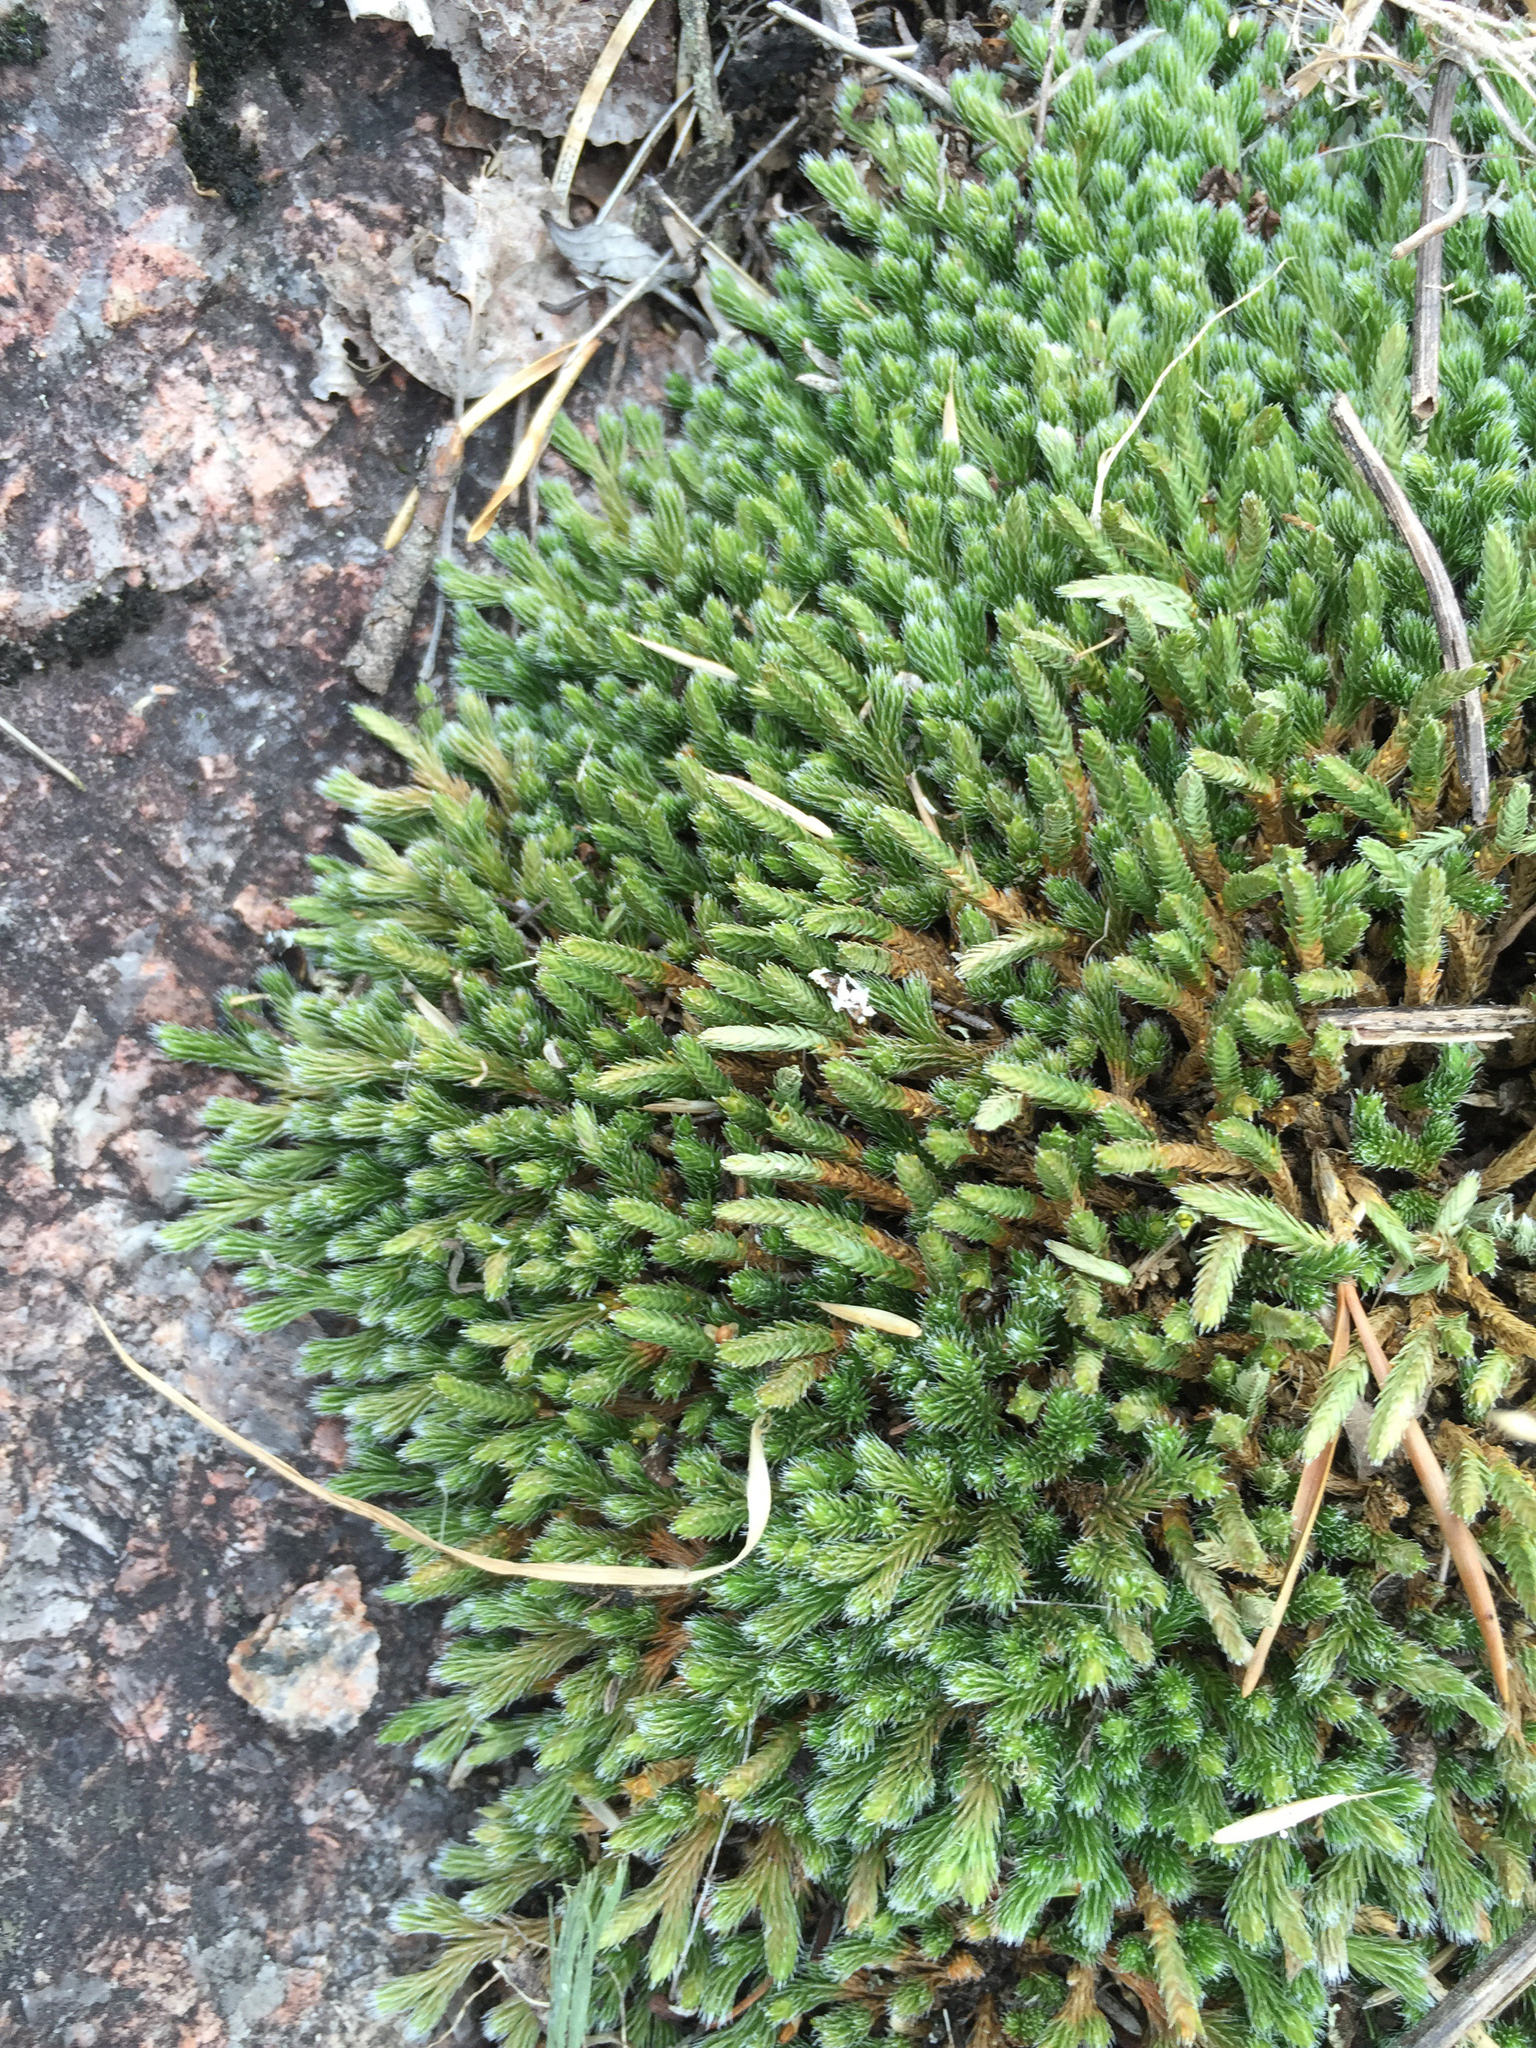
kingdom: Plantae
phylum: Tracheophyta
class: Lycopodiopsida
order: Selaginellales
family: Selaginellaceae
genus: Selaginella
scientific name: Selaginella rupestris
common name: Dwarf spikemoss
